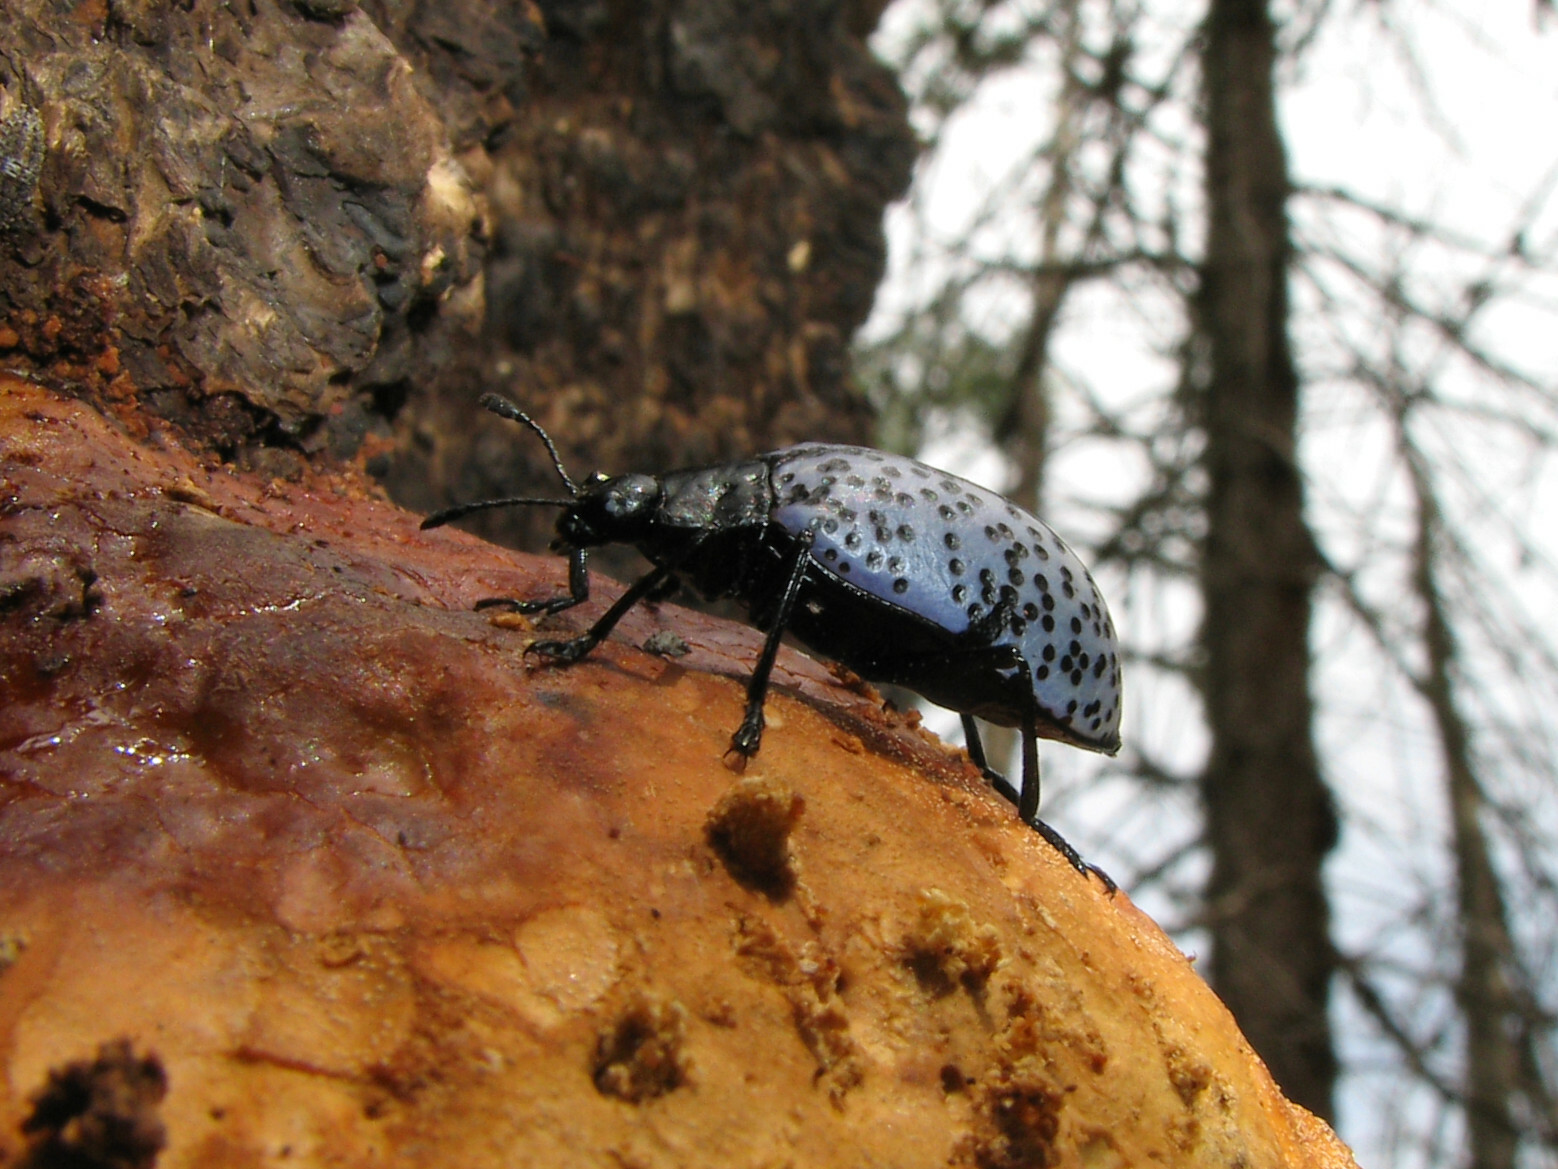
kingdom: Animalia
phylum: Arthropoda
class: Insecta
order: Coleoptera
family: Erotylidae
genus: Gibbifer
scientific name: Gibbifer californicus
